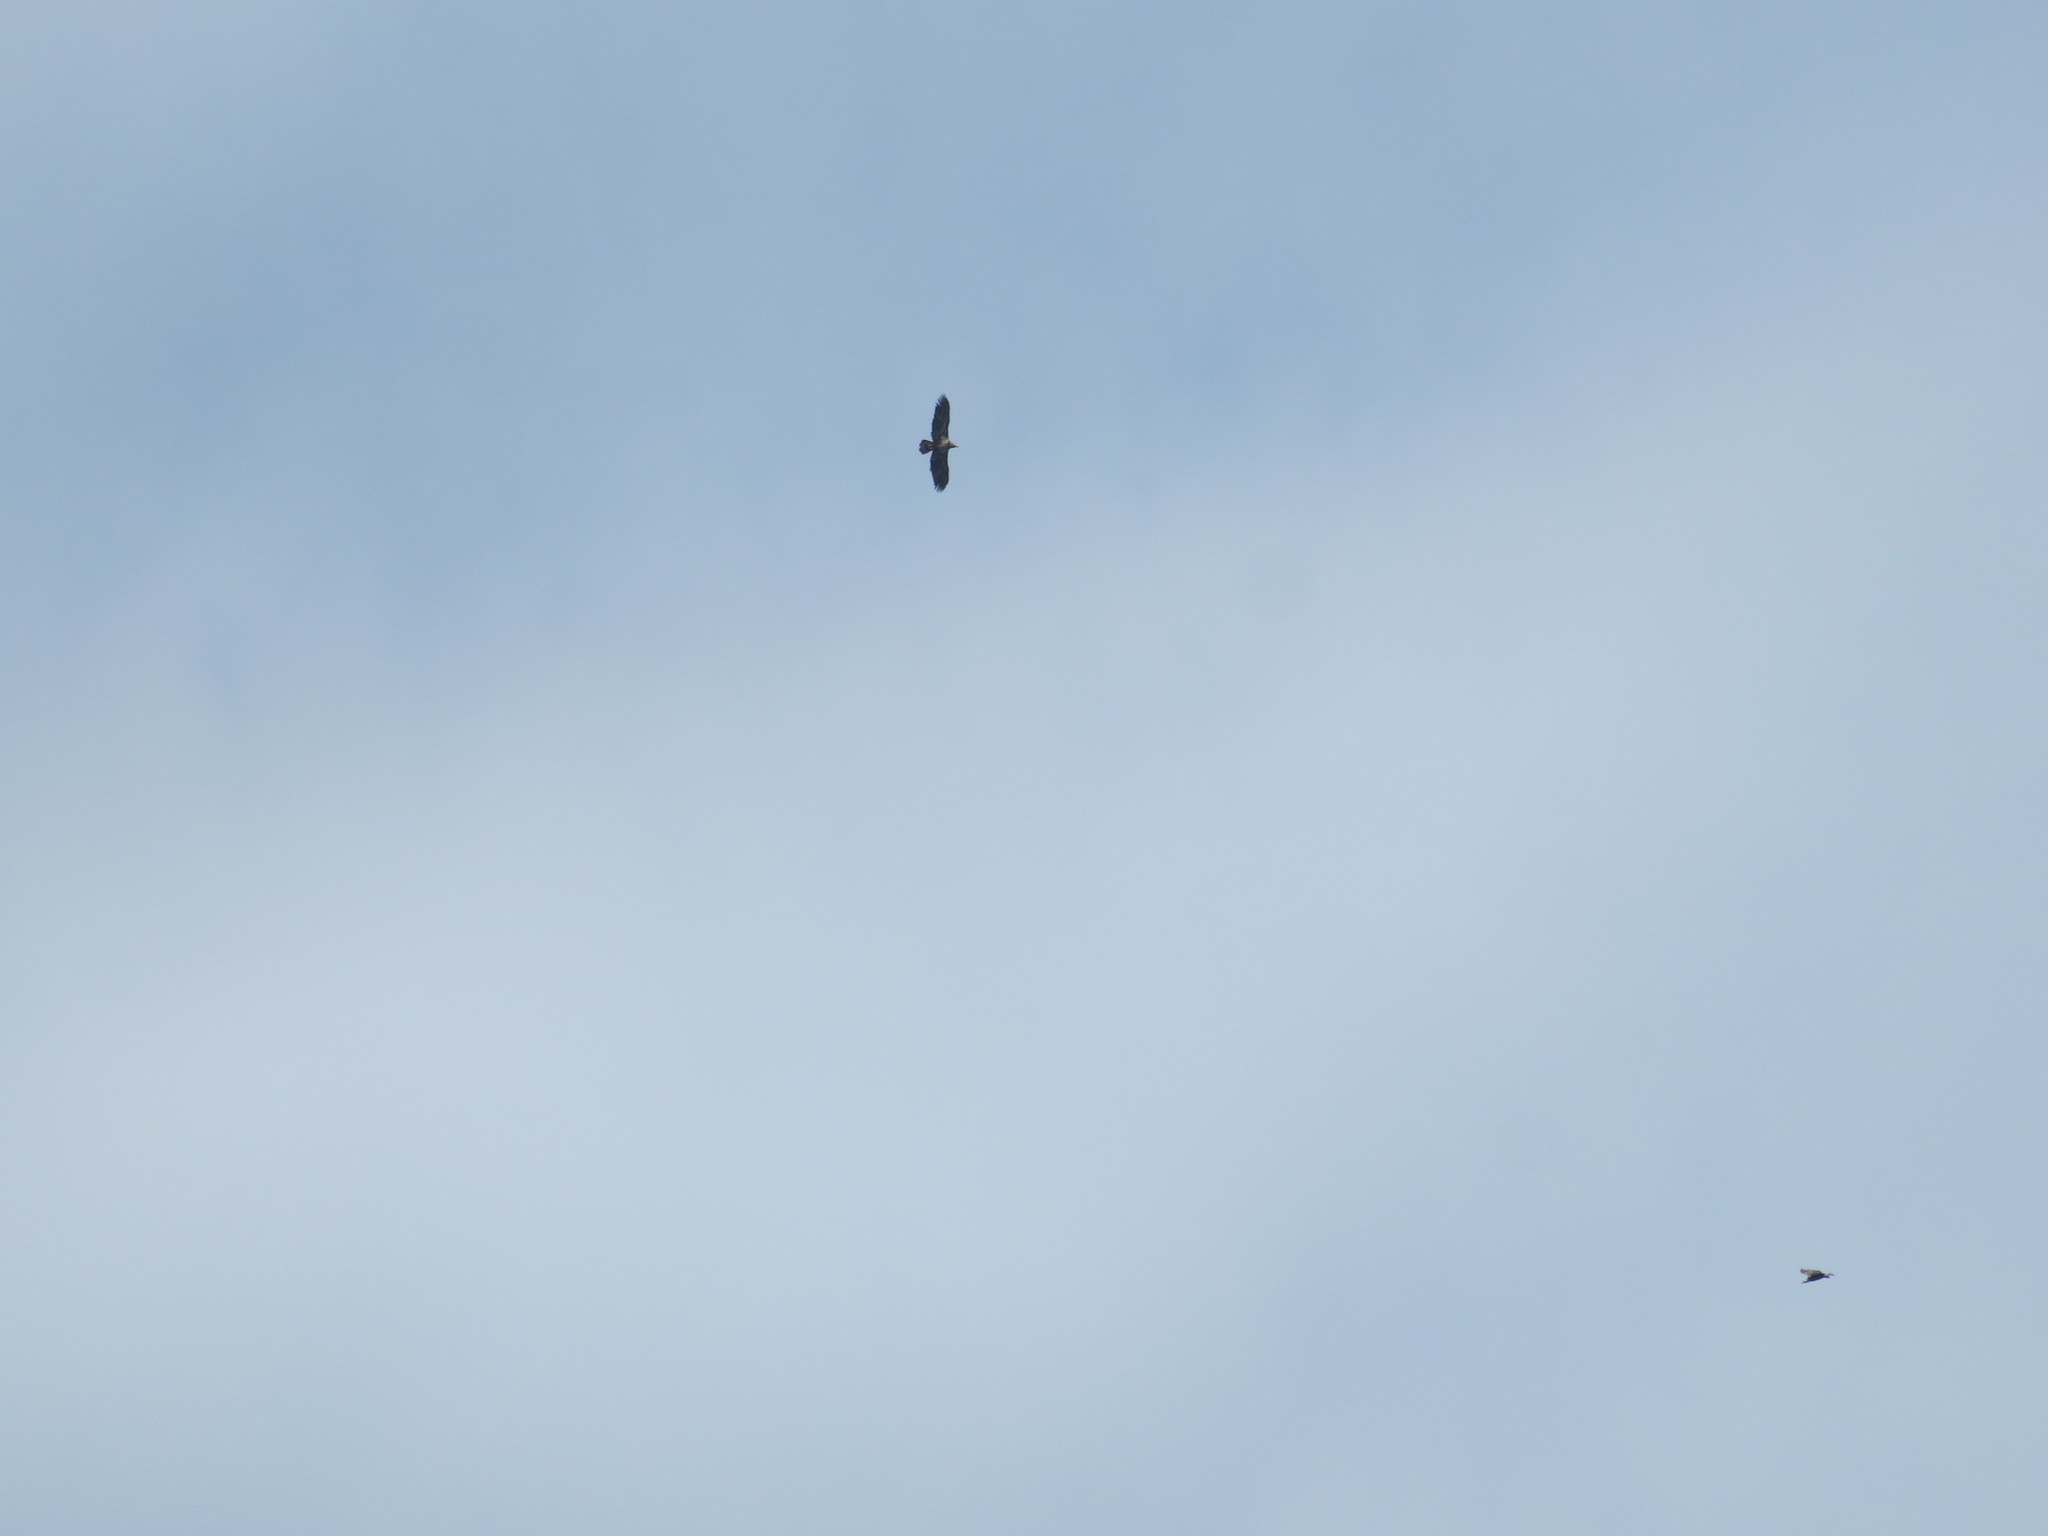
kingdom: Animalia
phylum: Chordata
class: Aves
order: Accipitriformes
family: Accipitridae
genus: Haliaeetus
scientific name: Haliaeetus leucocephalus
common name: Bald eagle
